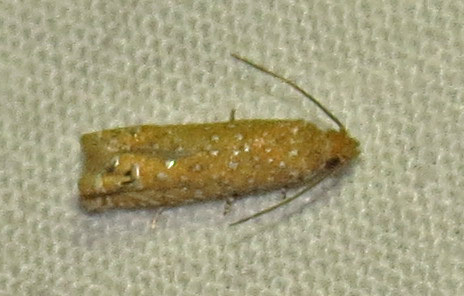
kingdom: Animalia
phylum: Arthropoda
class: Insecta
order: Lepidoptera
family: Tortricidae
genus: Pelochrista
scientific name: Pelochrista albiguttana
